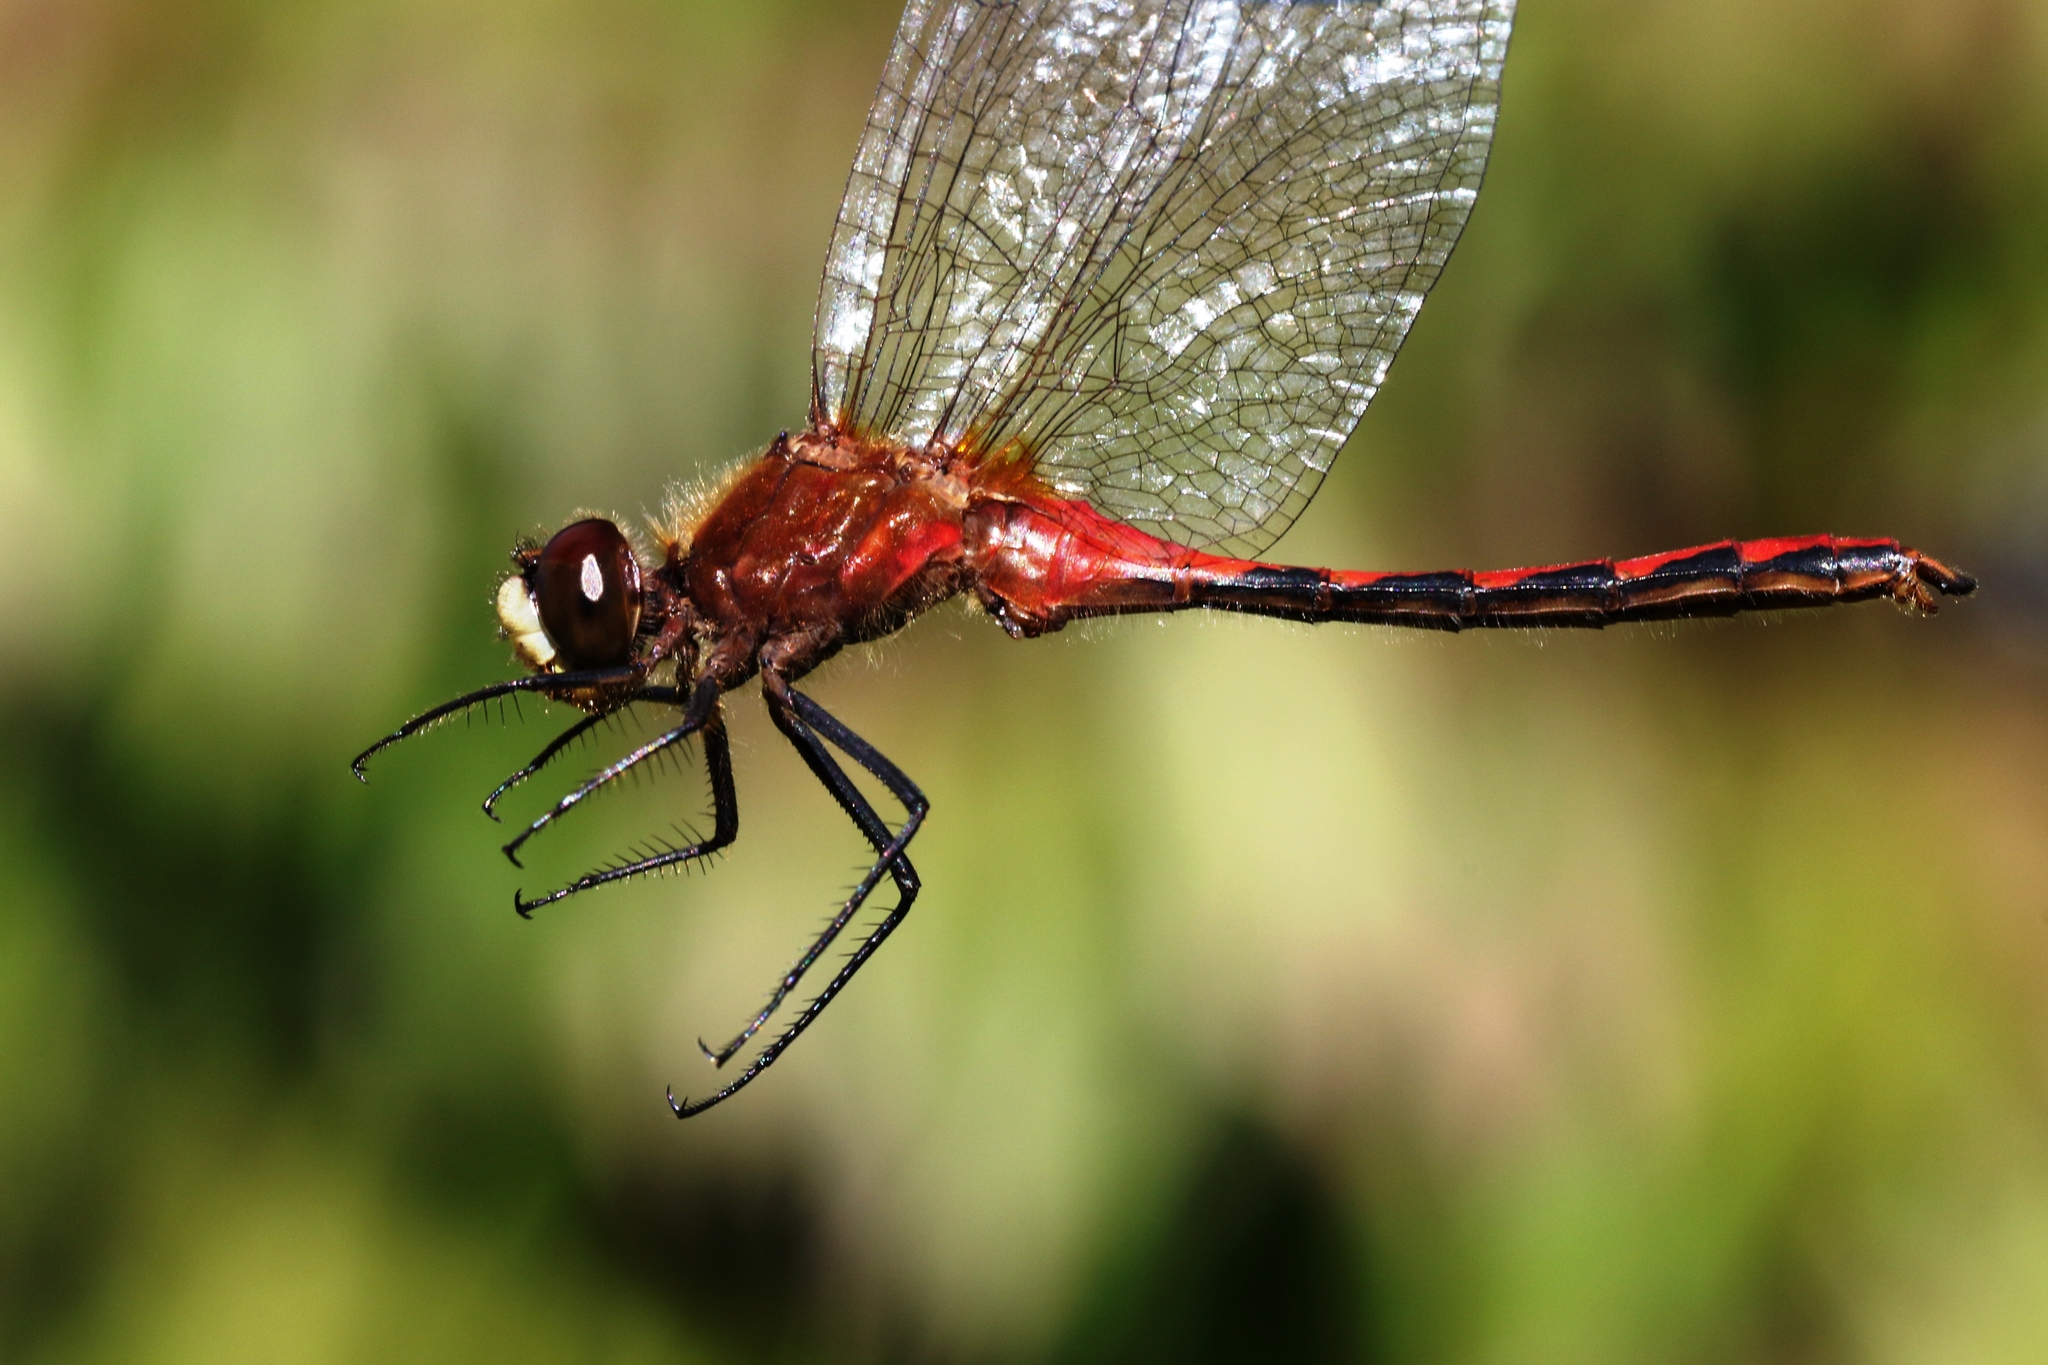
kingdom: Animalia
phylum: Arthropoda
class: Insecta
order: Odonata
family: Libellulidae
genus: Sympetrum
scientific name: Sympetrum obtrusum
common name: White-faced meadowhawk
